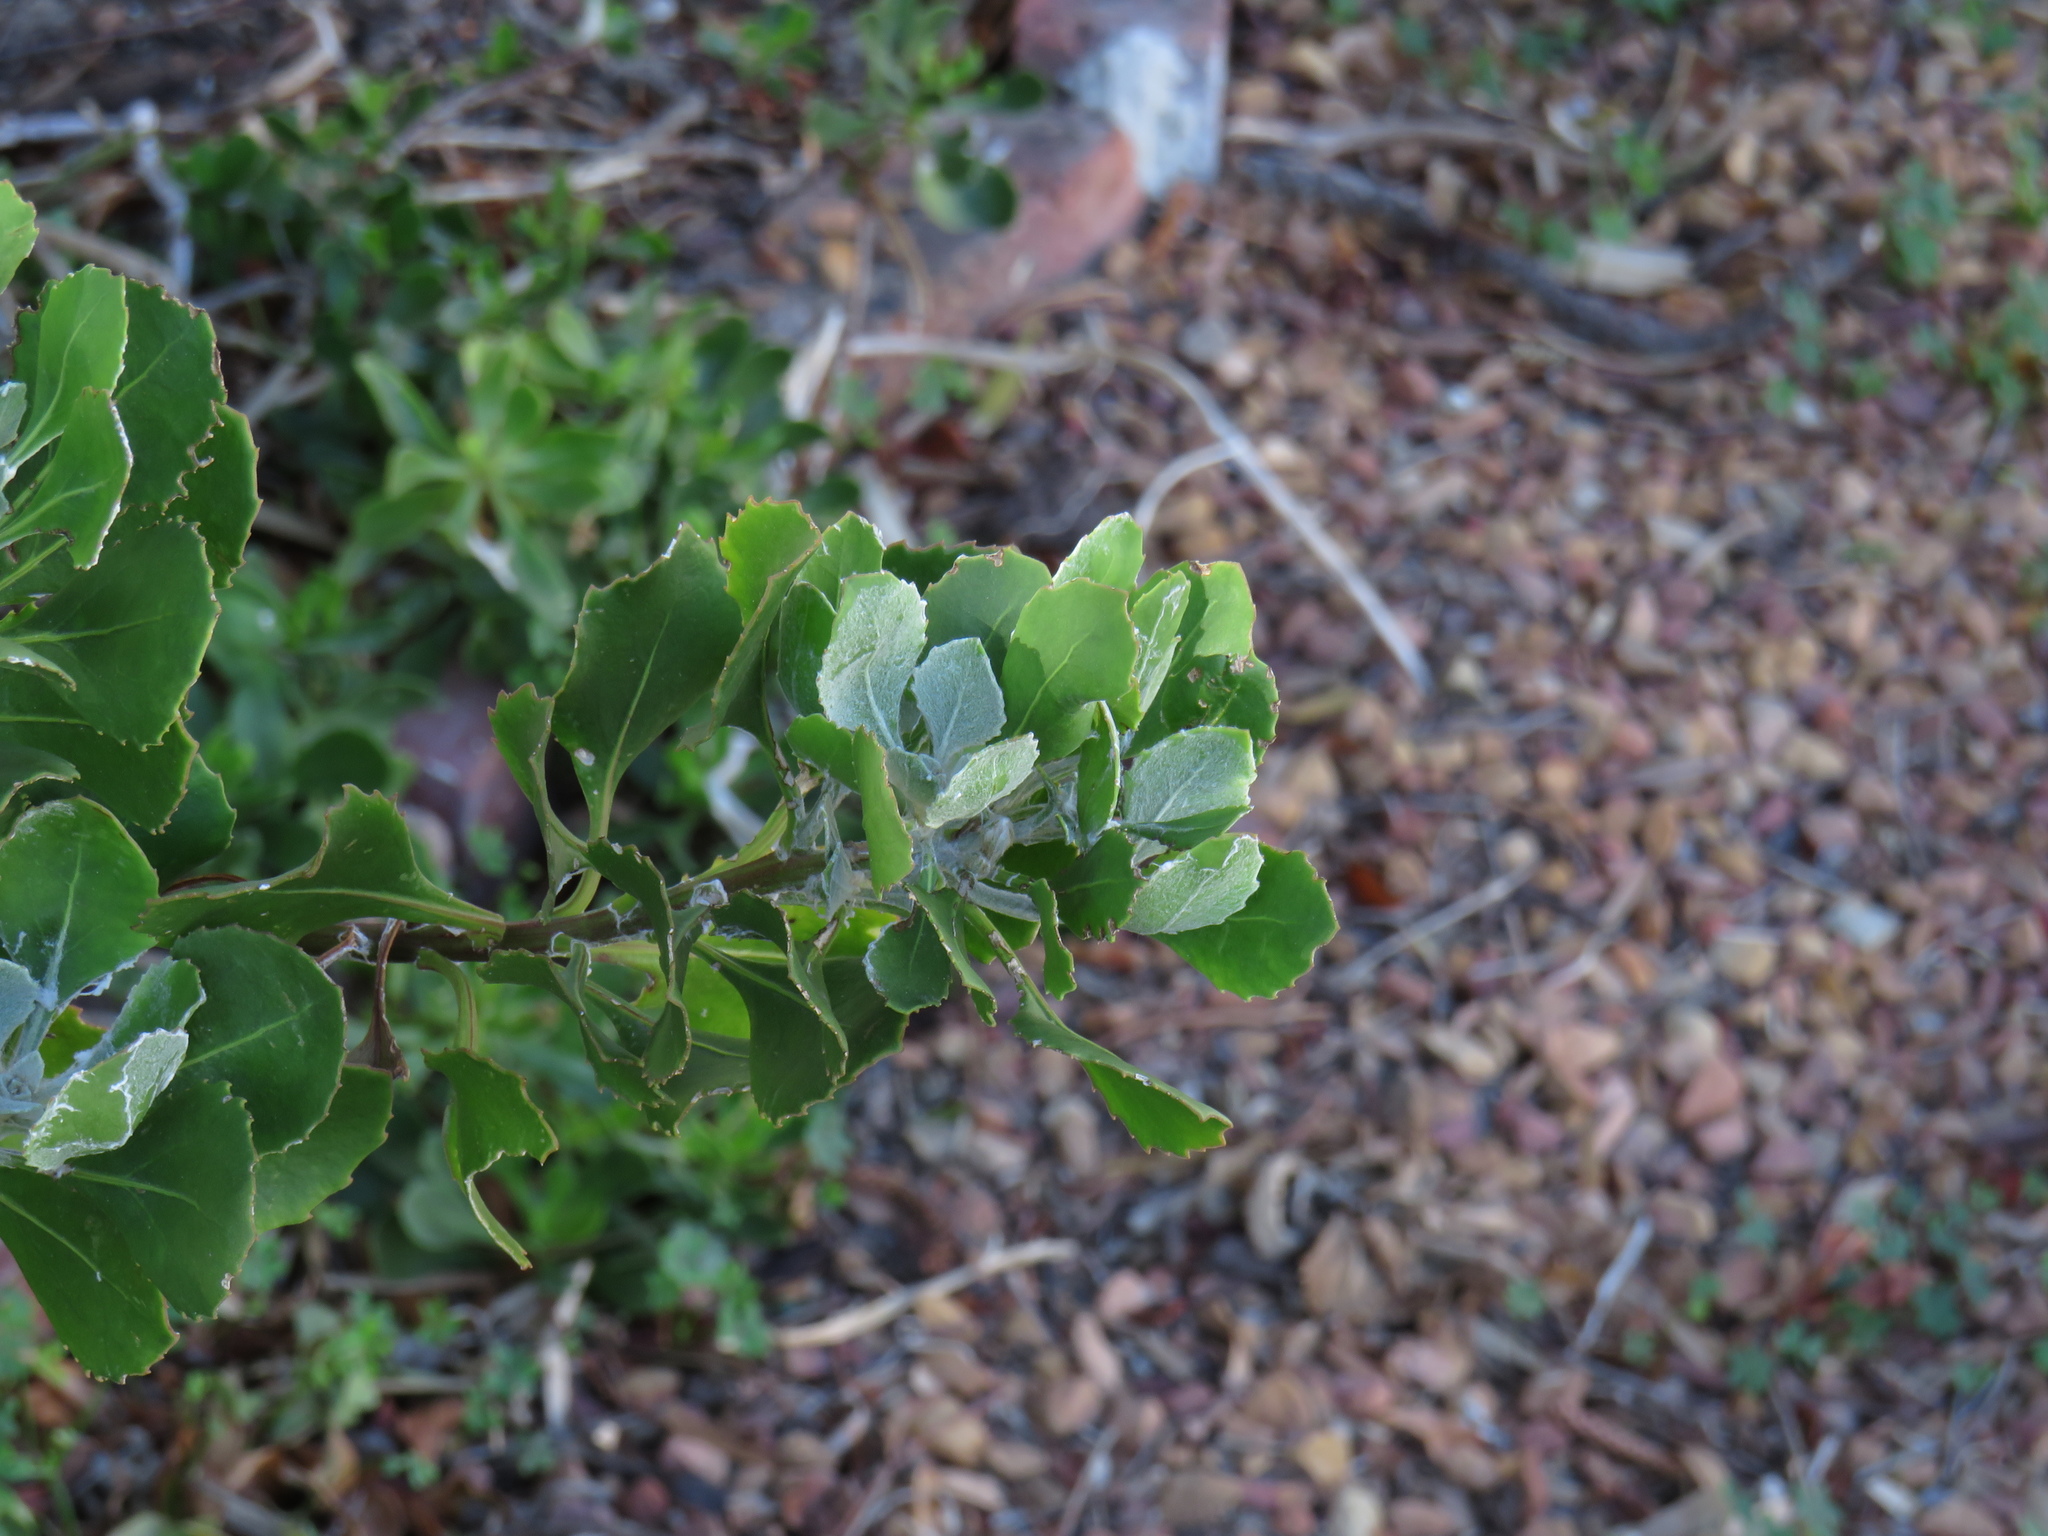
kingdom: Plantae
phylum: Tracheophyta
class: Magnoliopsida
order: Asterales
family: Asteraceae
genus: Osteospermum
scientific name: Osteospermum moniliferum
